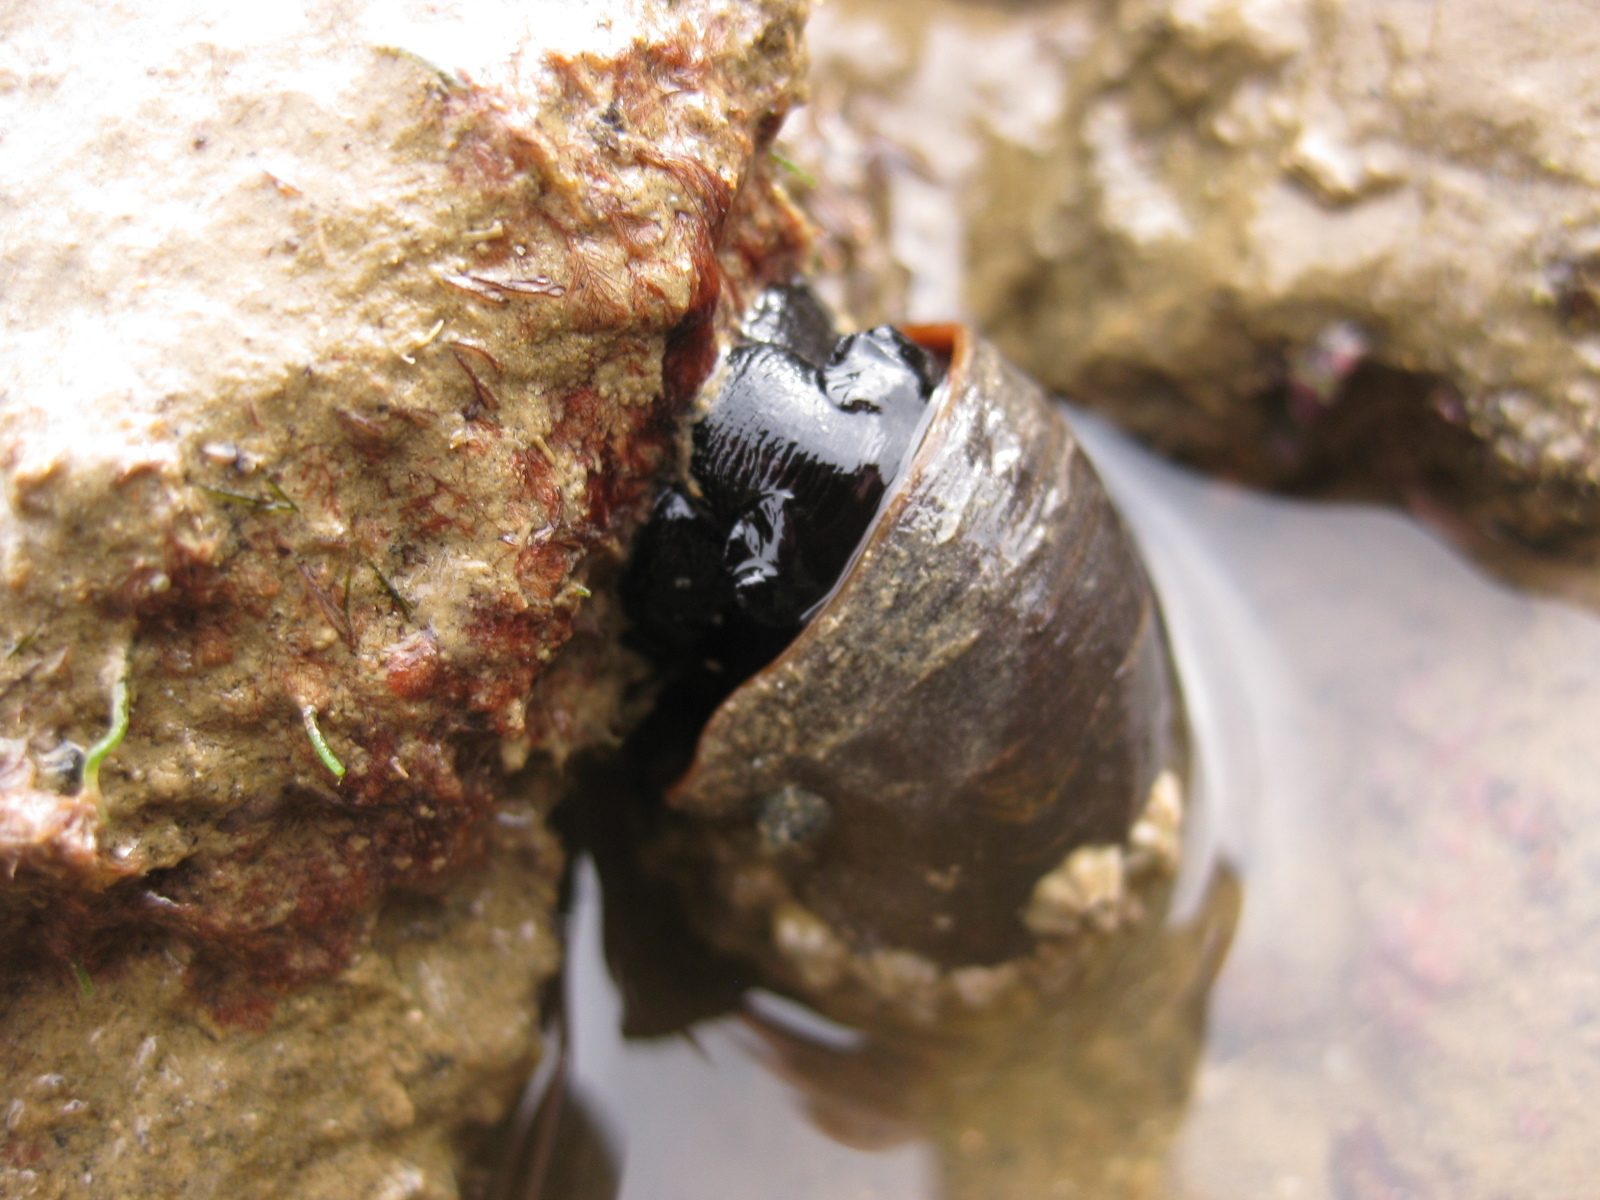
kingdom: Animalia
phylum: Mollusca
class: Gastropoda
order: Trochida
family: Turbinidae
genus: Lunella
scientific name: Lunella smaragda
